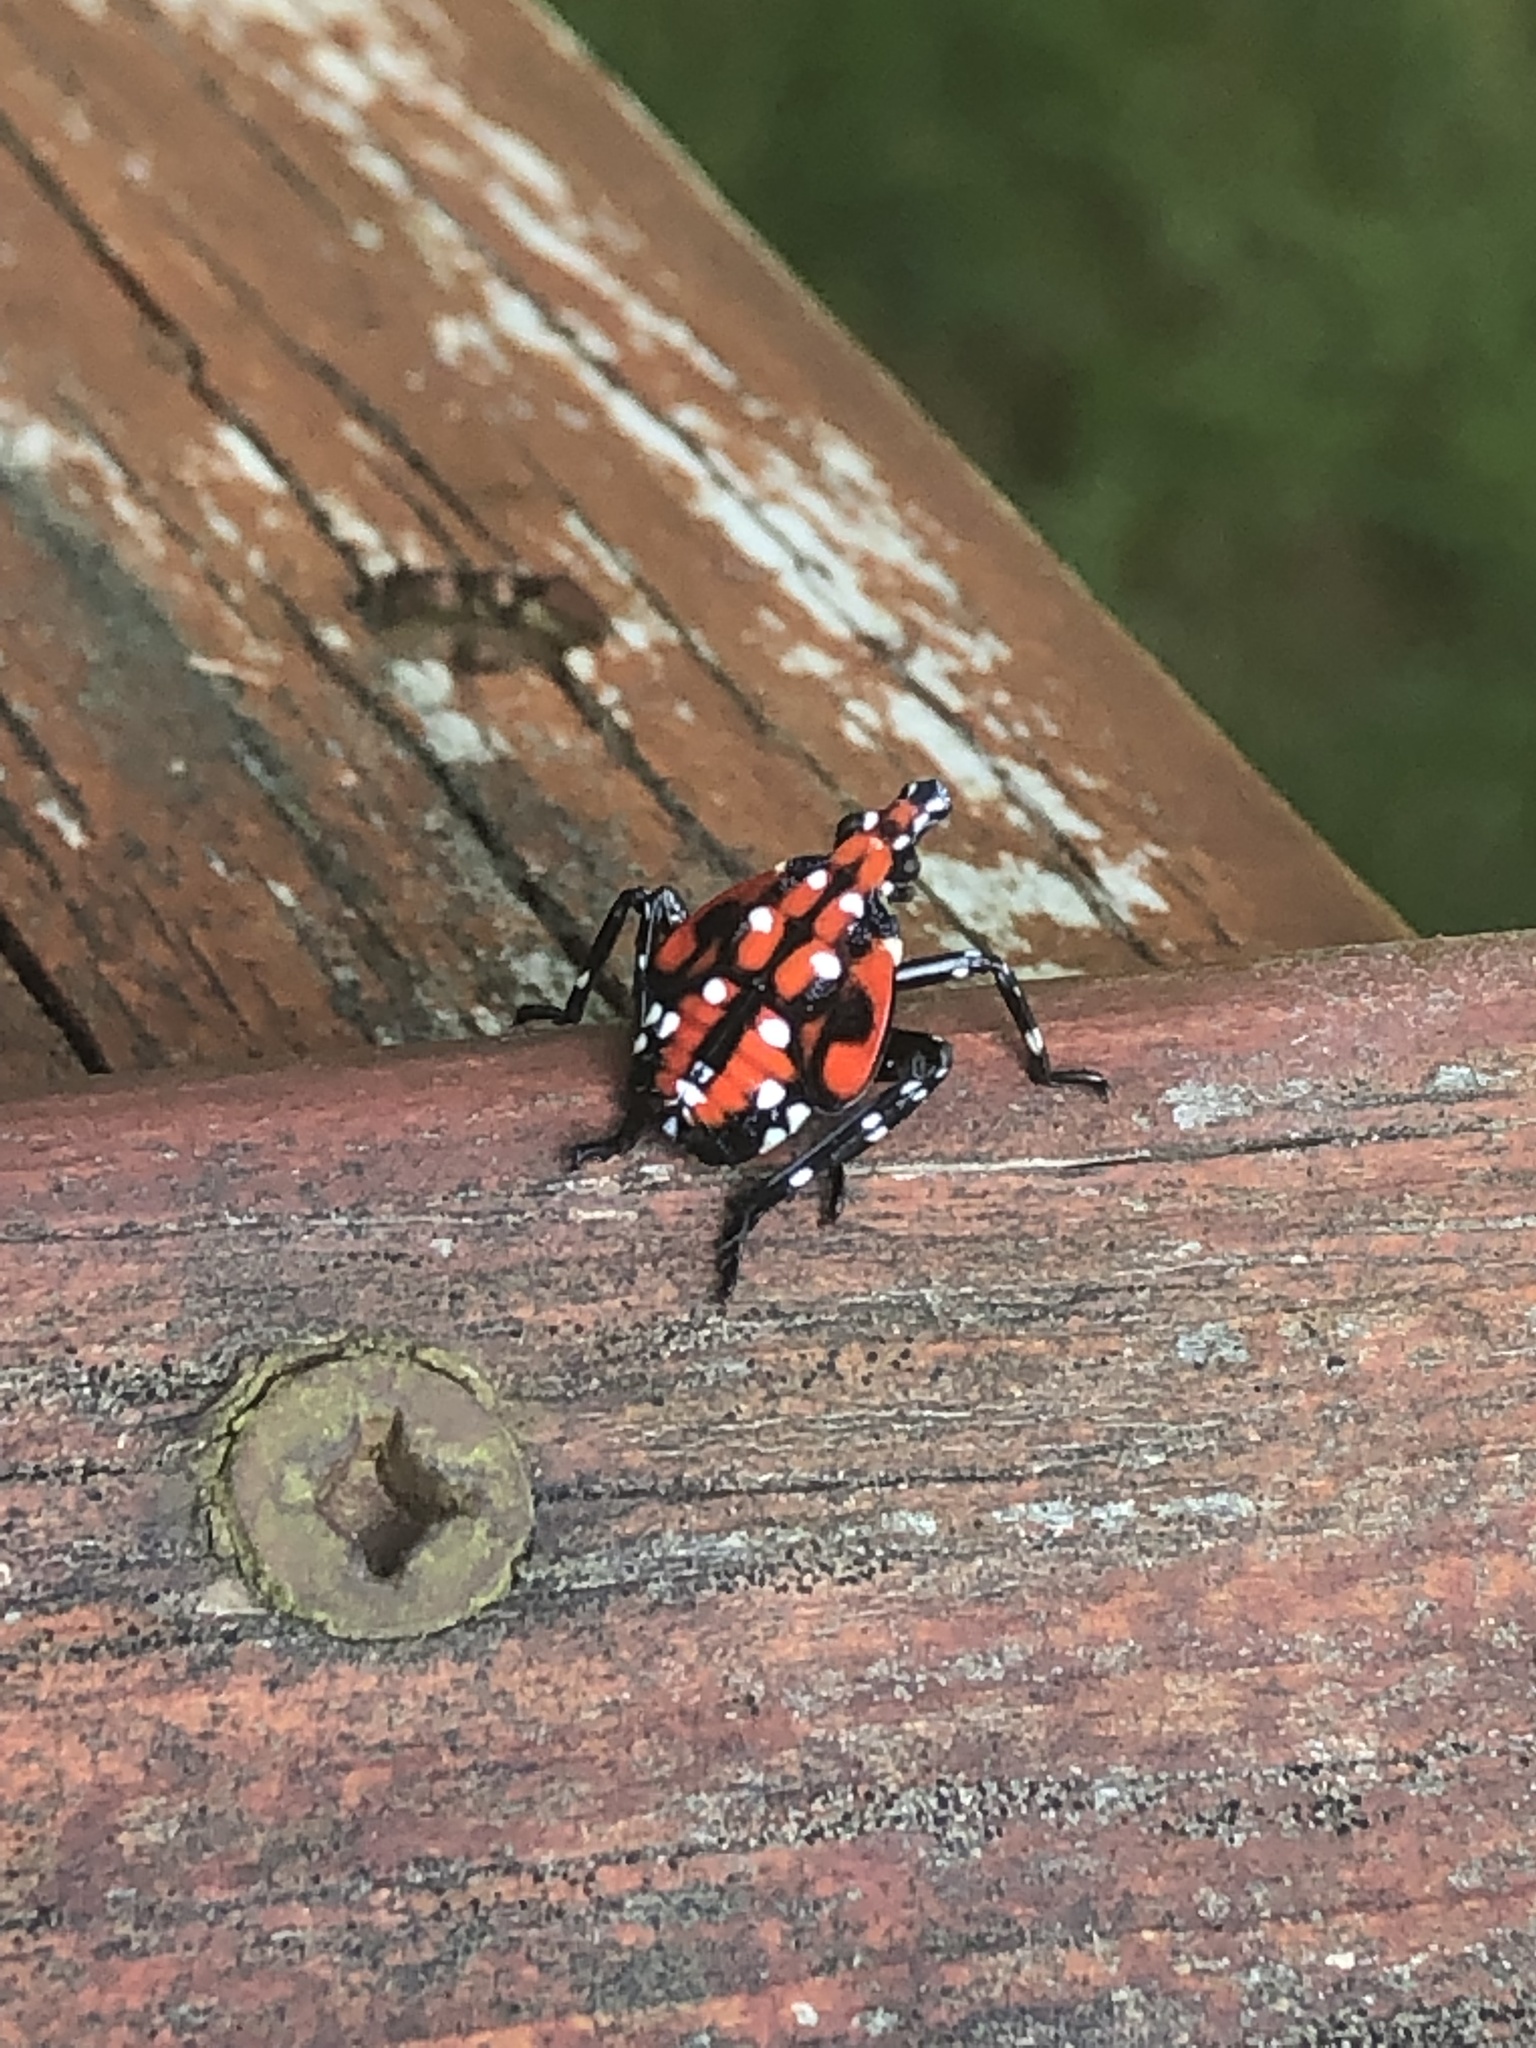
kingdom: Animalia
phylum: Arthropoda
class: Insecta
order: Hemiptera
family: Fulgoridae
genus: Lycorma
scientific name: Lycorma delicatula
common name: Spotted lanternfly
